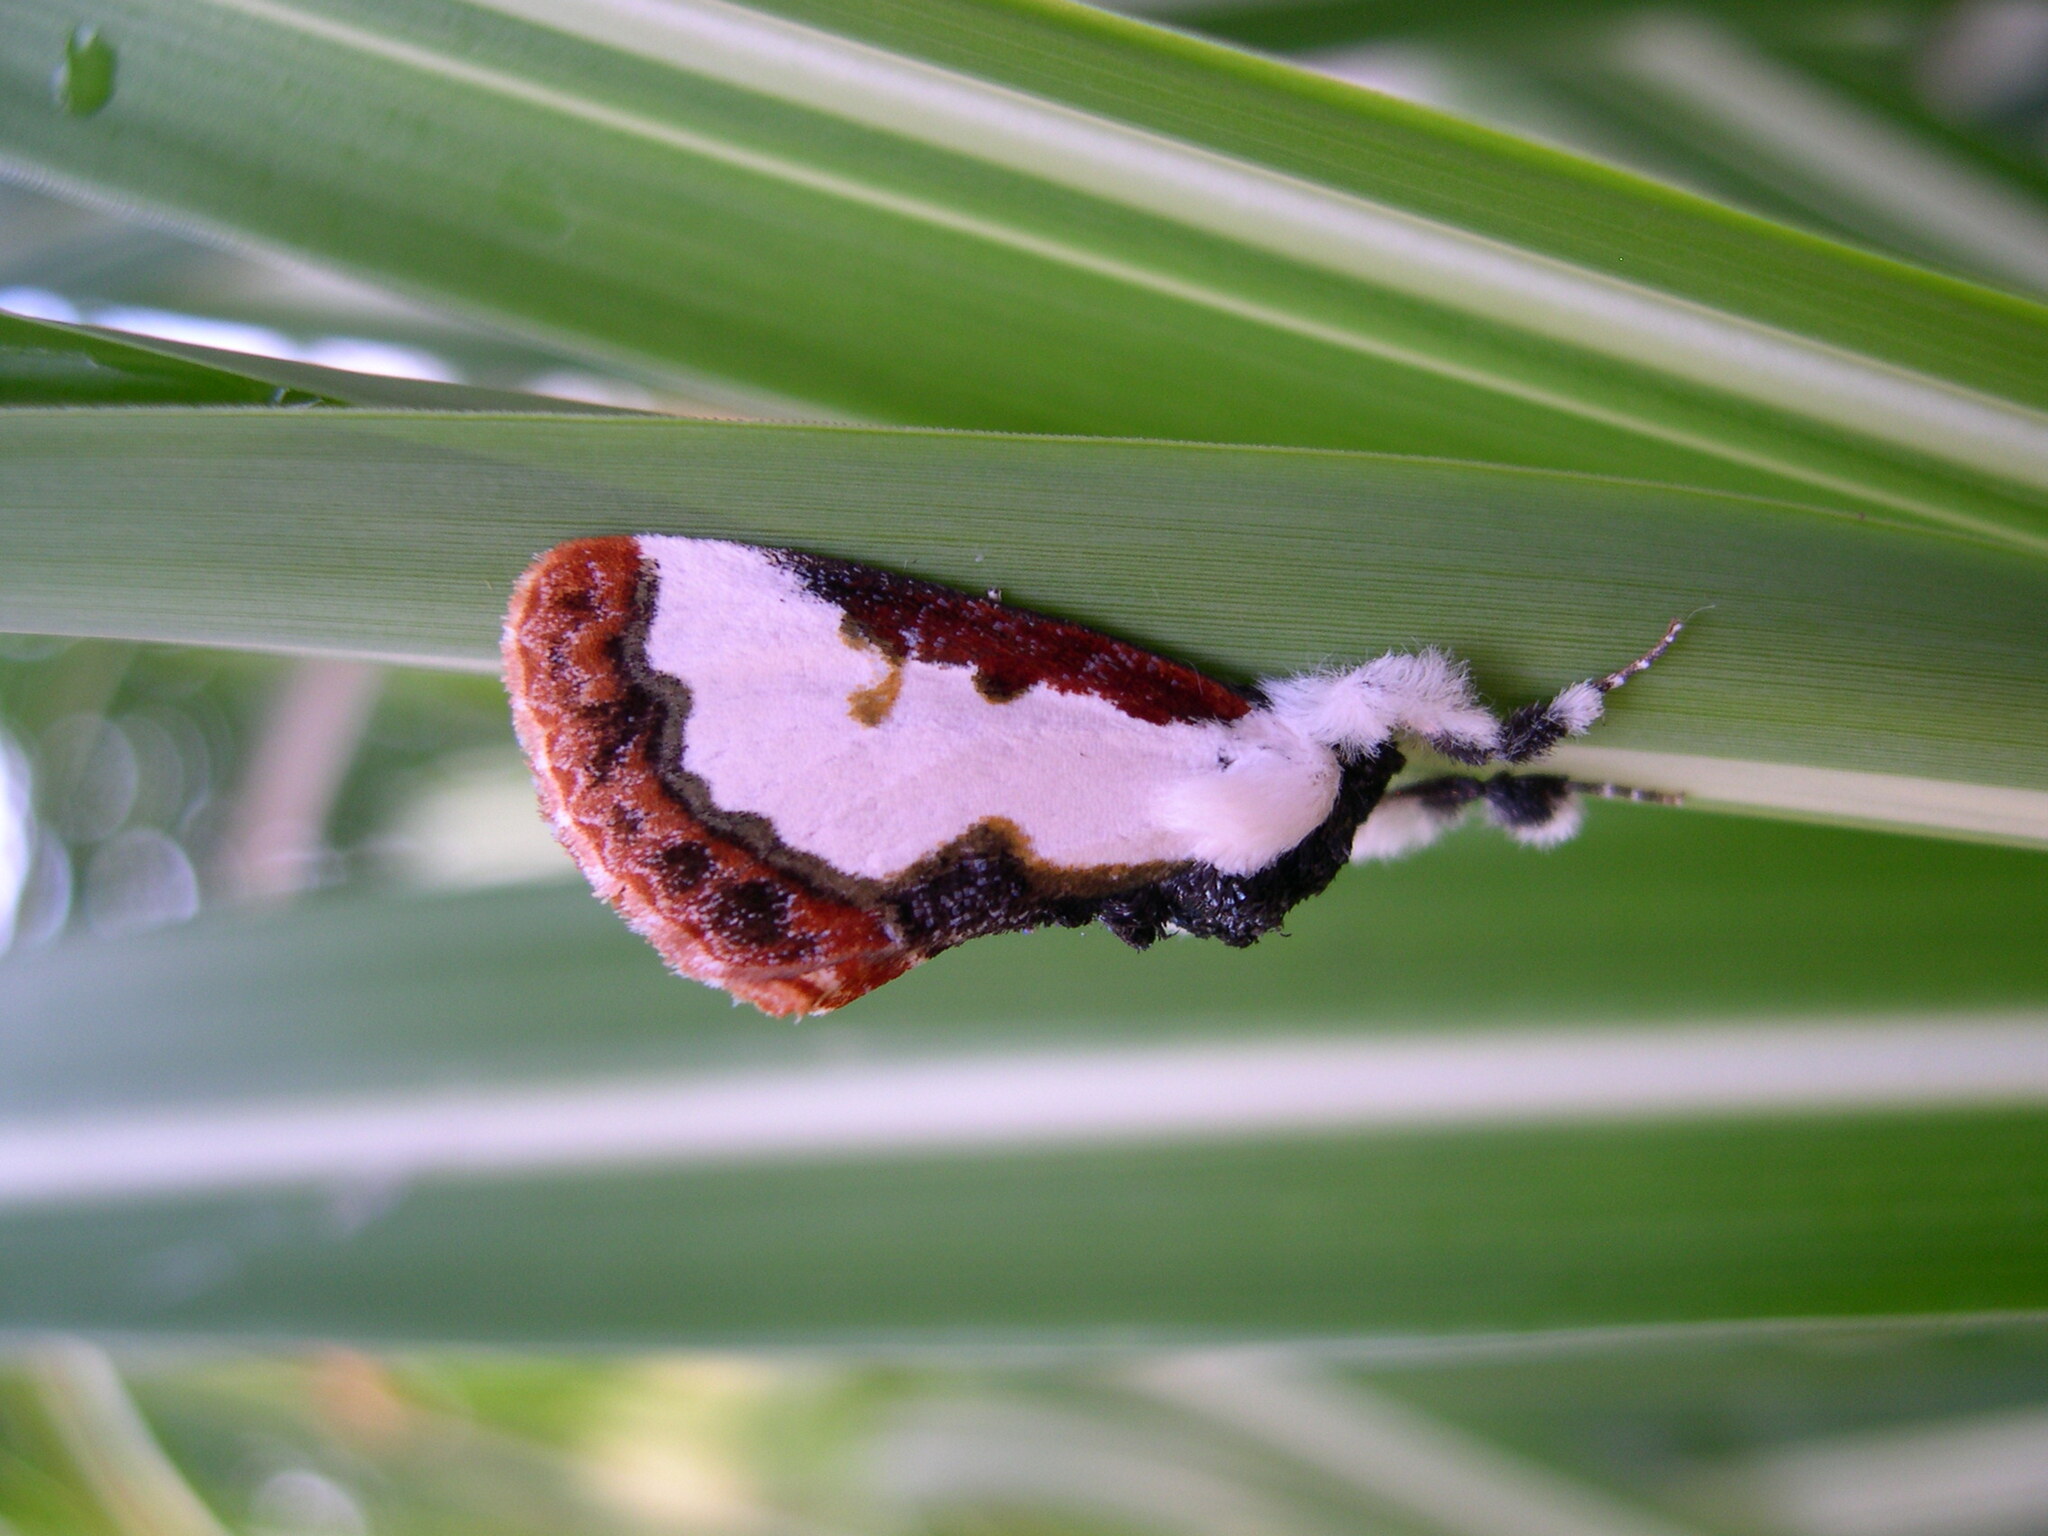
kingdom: Animalia
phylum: Arthropoda
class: Insecta
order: Lepidoptera
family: Noctuidae
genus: Eudryas
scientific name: Eudryas unio
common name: Pearly wood-nymph
